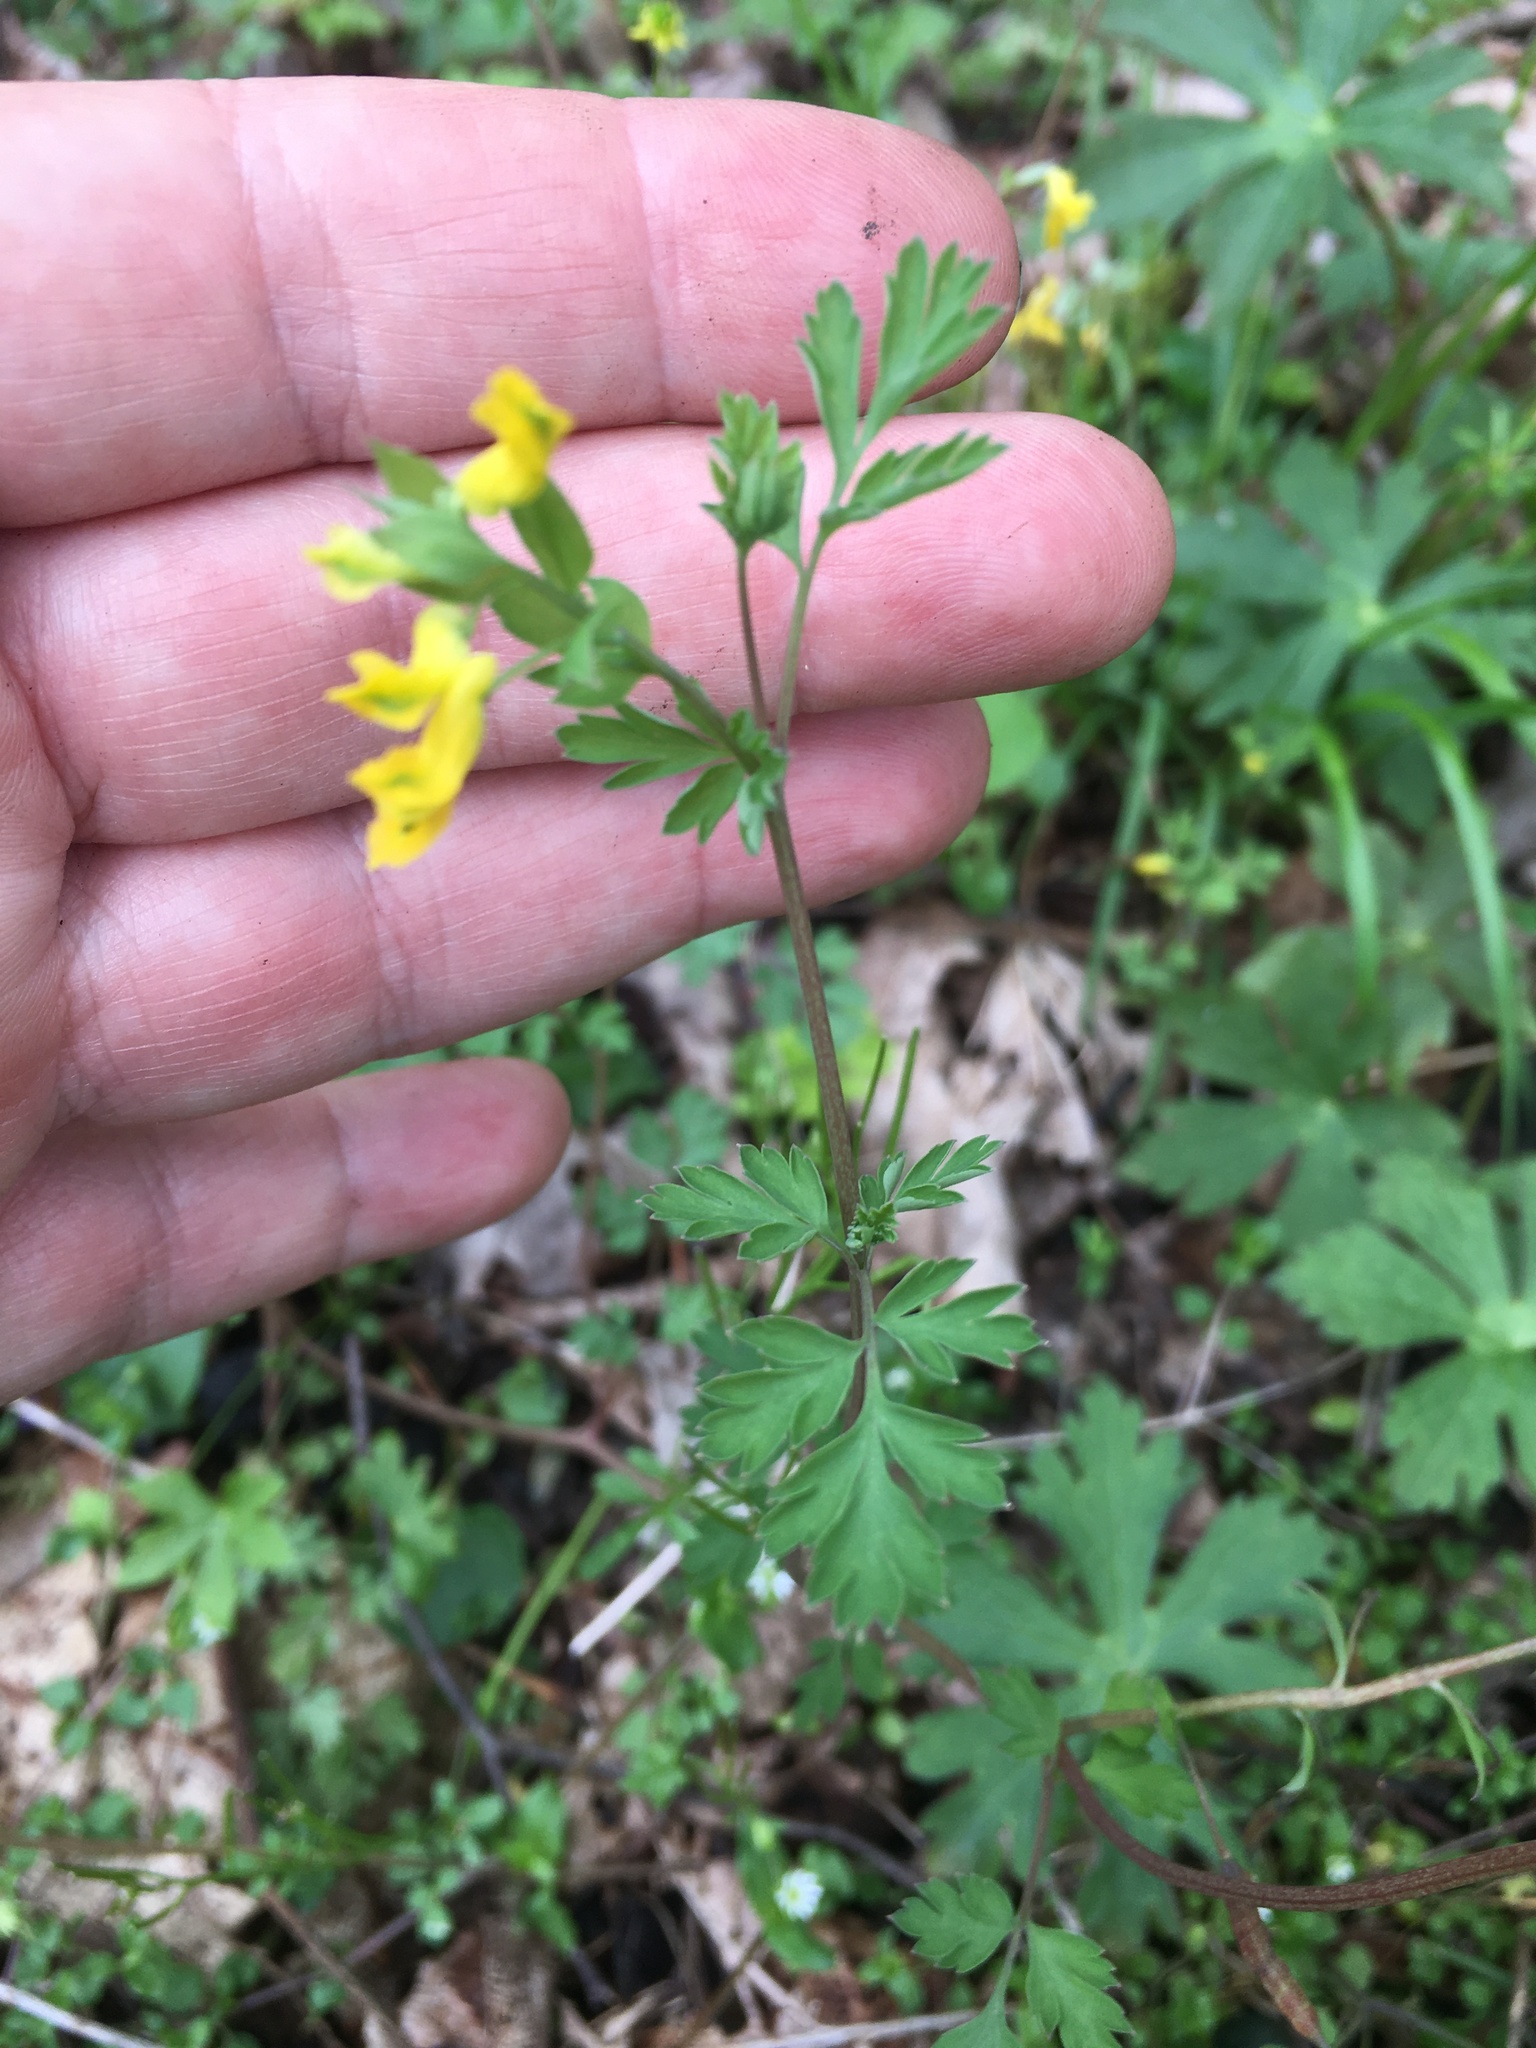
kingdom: Plantae
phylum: Tracheophyta
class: Magnoliopsida
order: Ranunculales
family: Papaveraceae
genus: Corydalis
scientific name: Corydalis flavula
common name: Yellow corydalis
